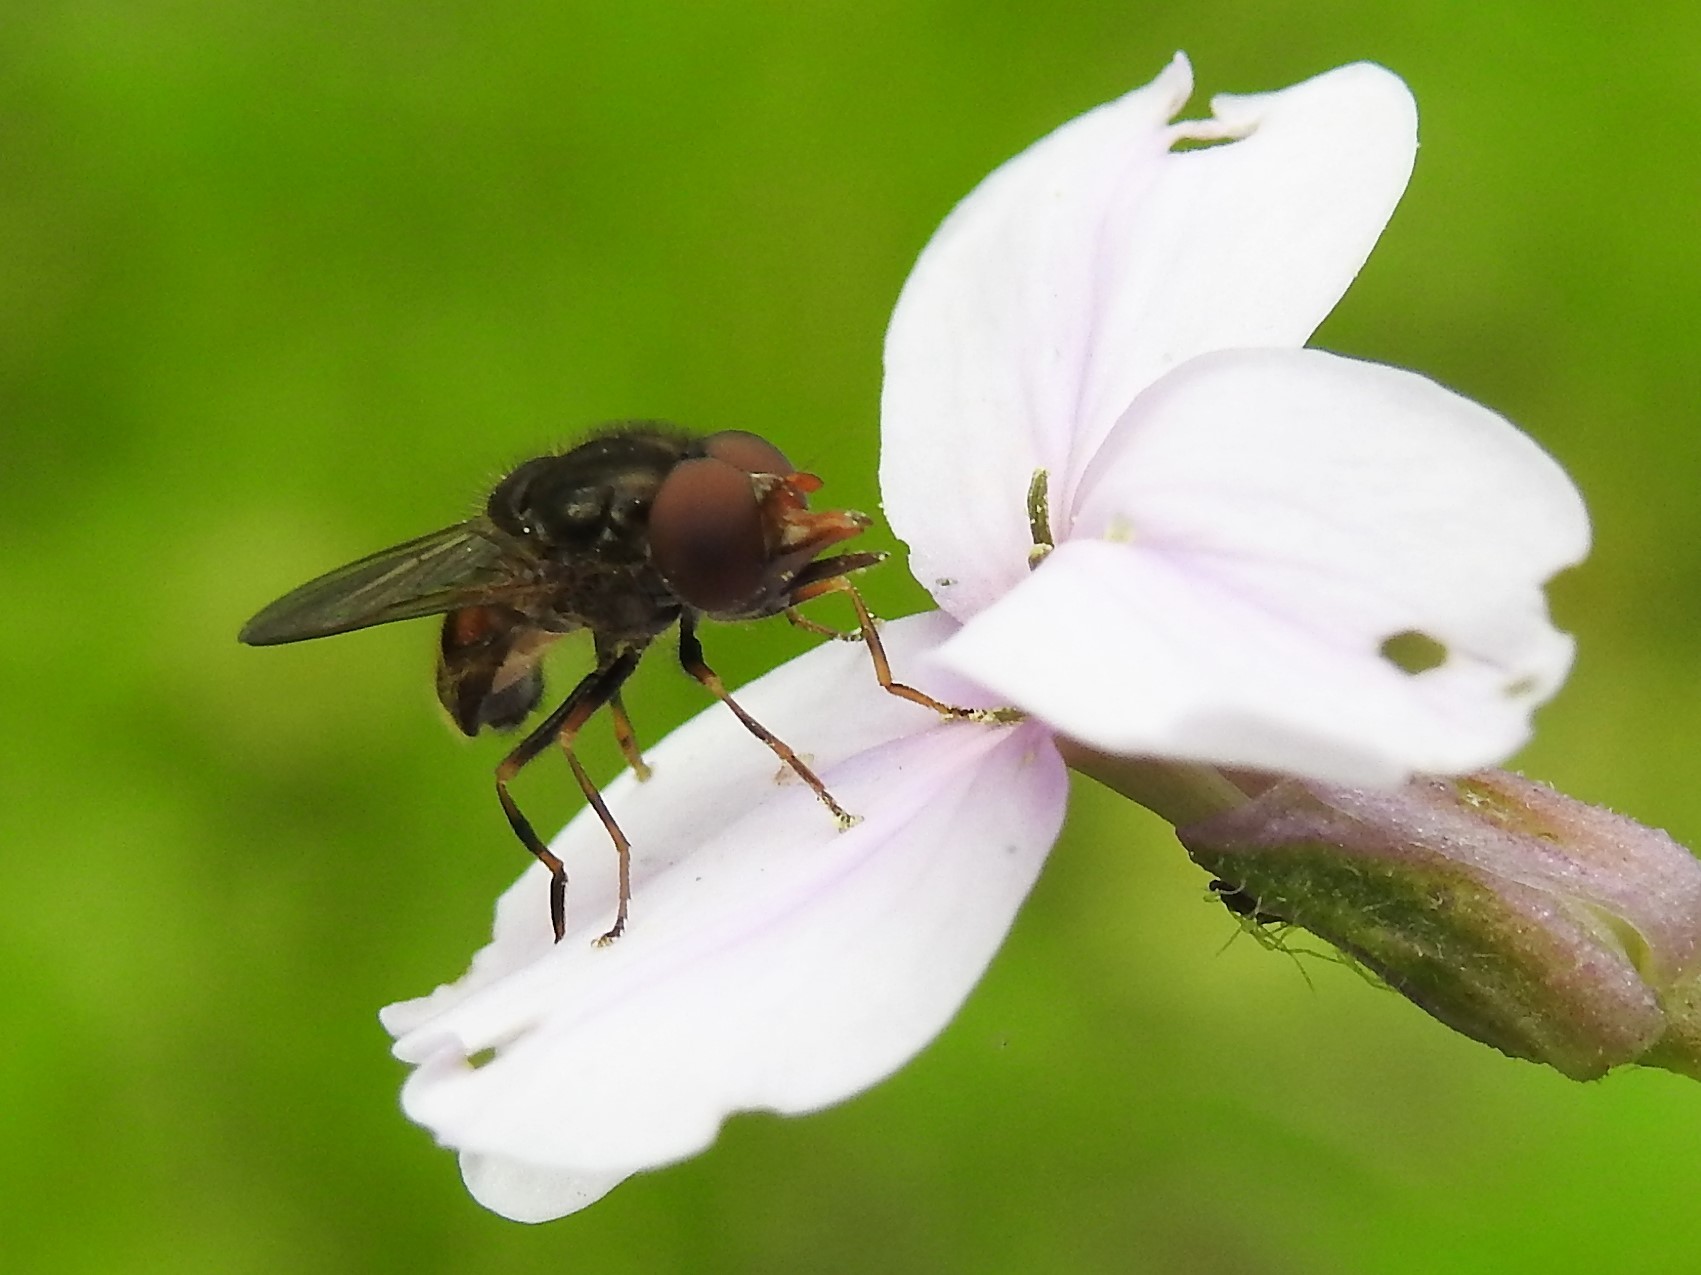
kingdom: Animalia
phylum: Arthropoda
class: Insecta
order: Diptera
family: Syrphidae
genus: Rhingia
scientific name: Rhingia nasica
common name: American snout fly
